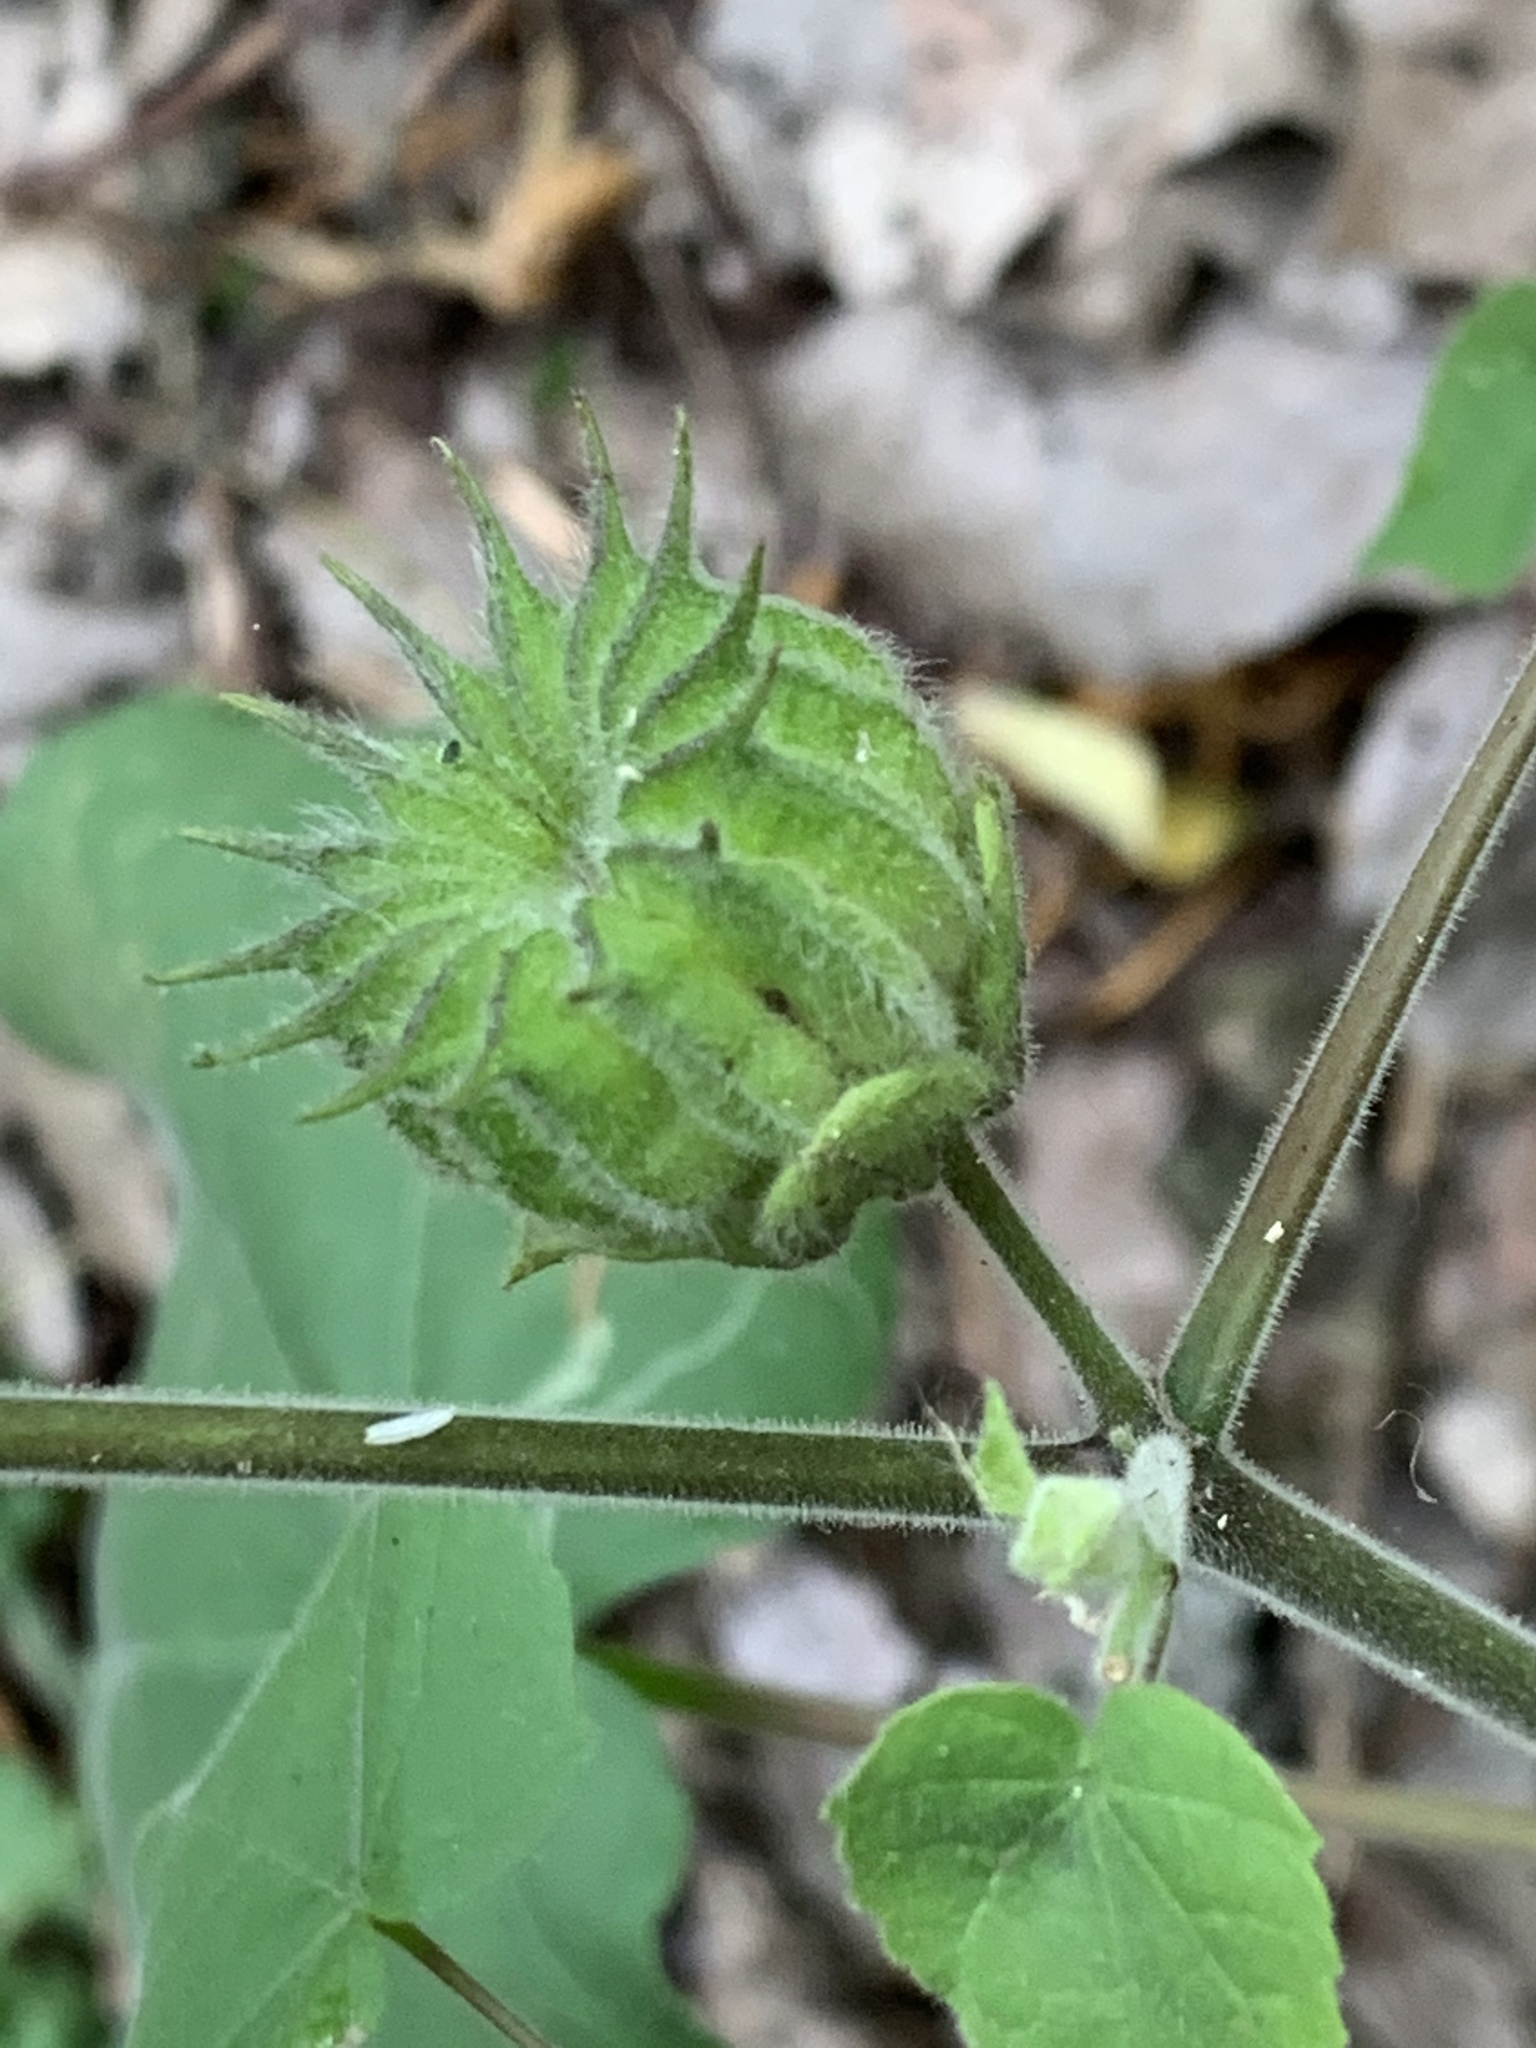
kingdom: Plantae
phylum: Tracheophyta
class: Magnoliopsida
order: Malvales
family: Malvaceae
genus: Abutilon
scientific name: Abutilon theophrasti
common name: Velvetleaf
